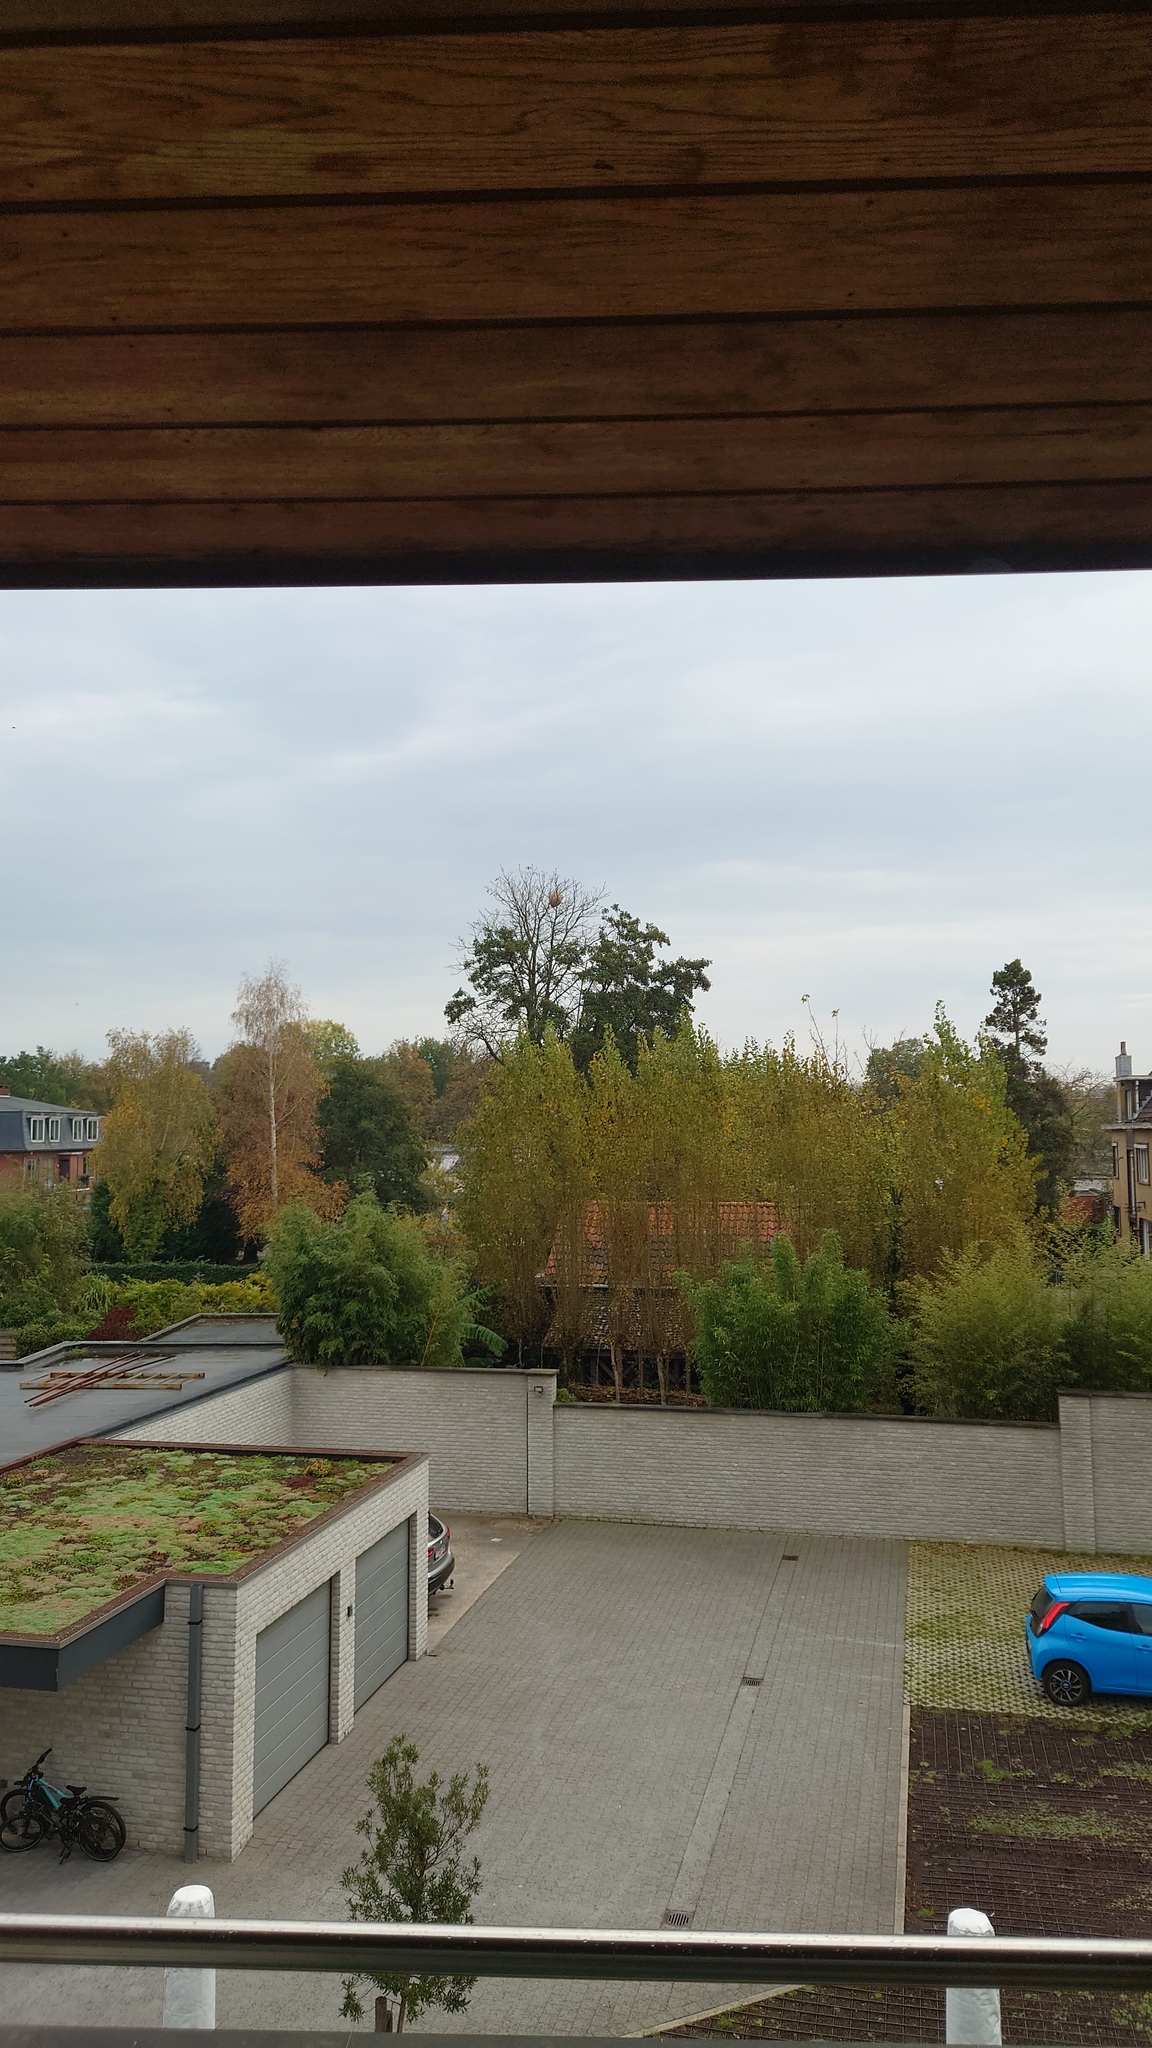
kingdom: Animalia
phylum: Arthropoda
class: Insecta
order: Hymenoptera
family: Vespidae
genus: Vespa
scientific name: Vespa velutina
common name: Asian hornet
